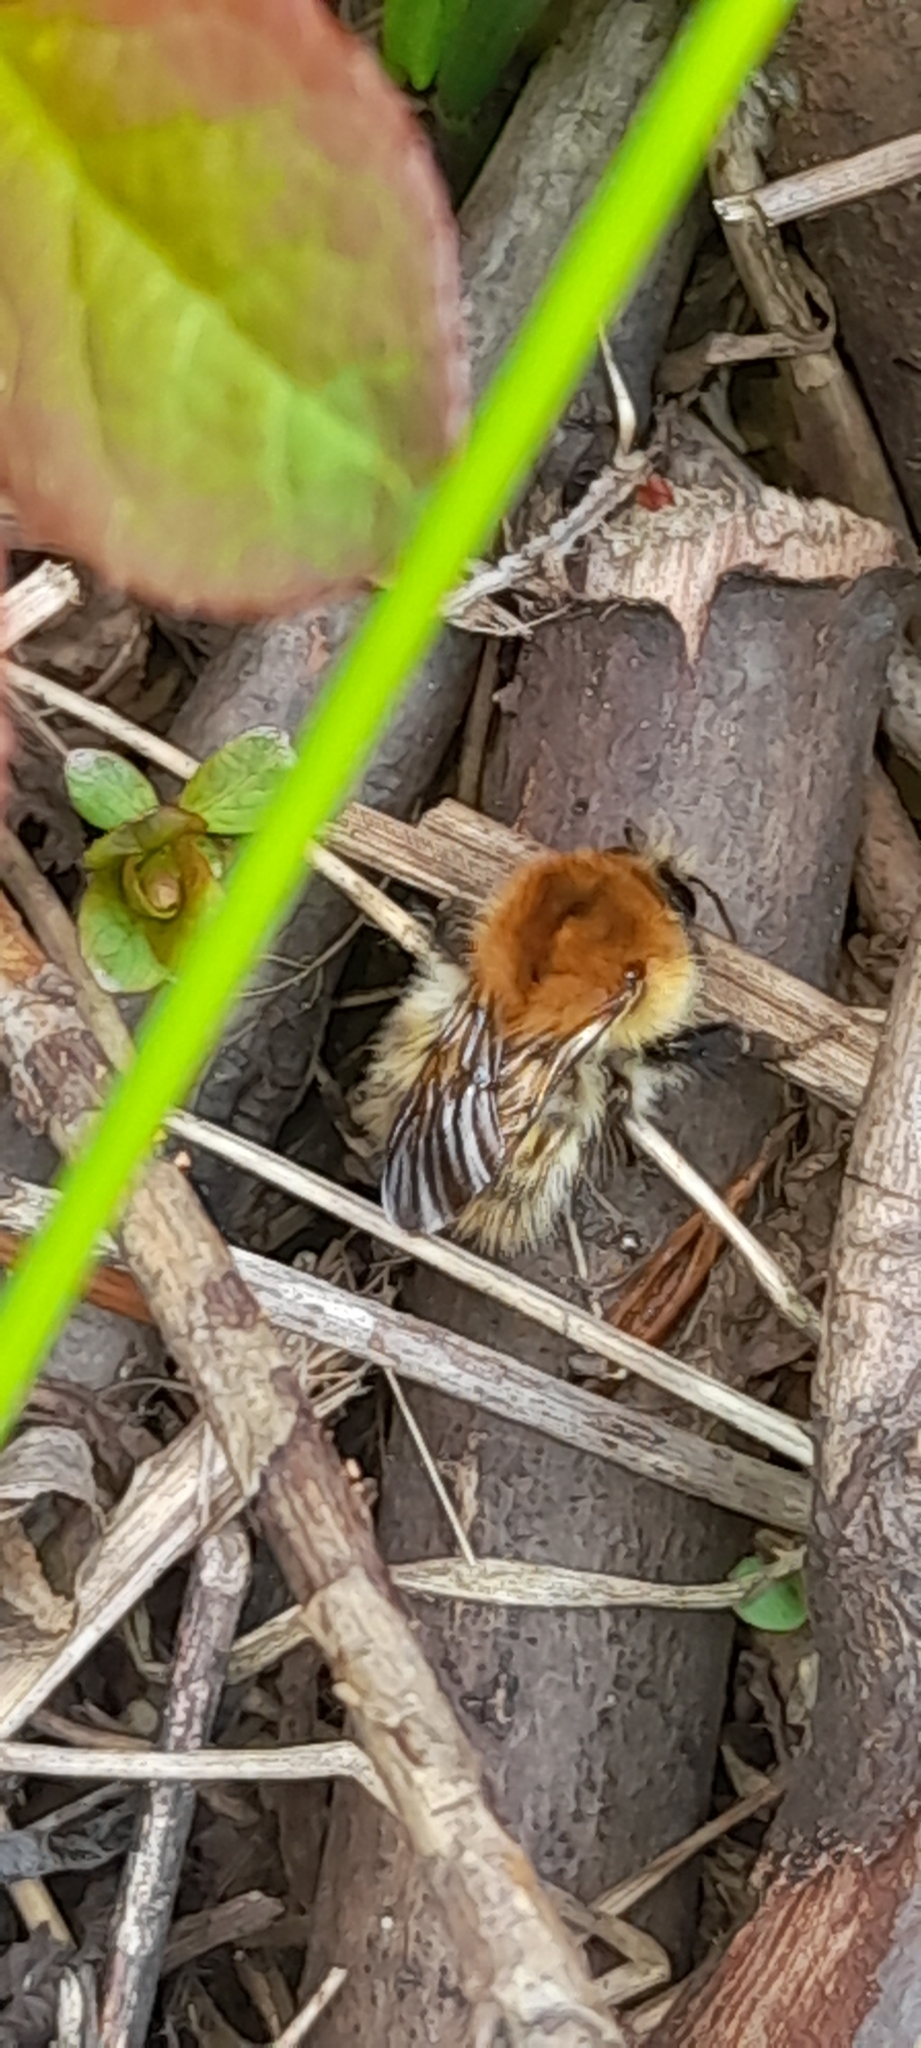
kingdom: Animalia
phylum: Arthropoda
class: Insecta
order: Hymenoptera
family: Apidae
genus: Bombus
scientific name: Bombus pascuorum
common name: Common carder bee
